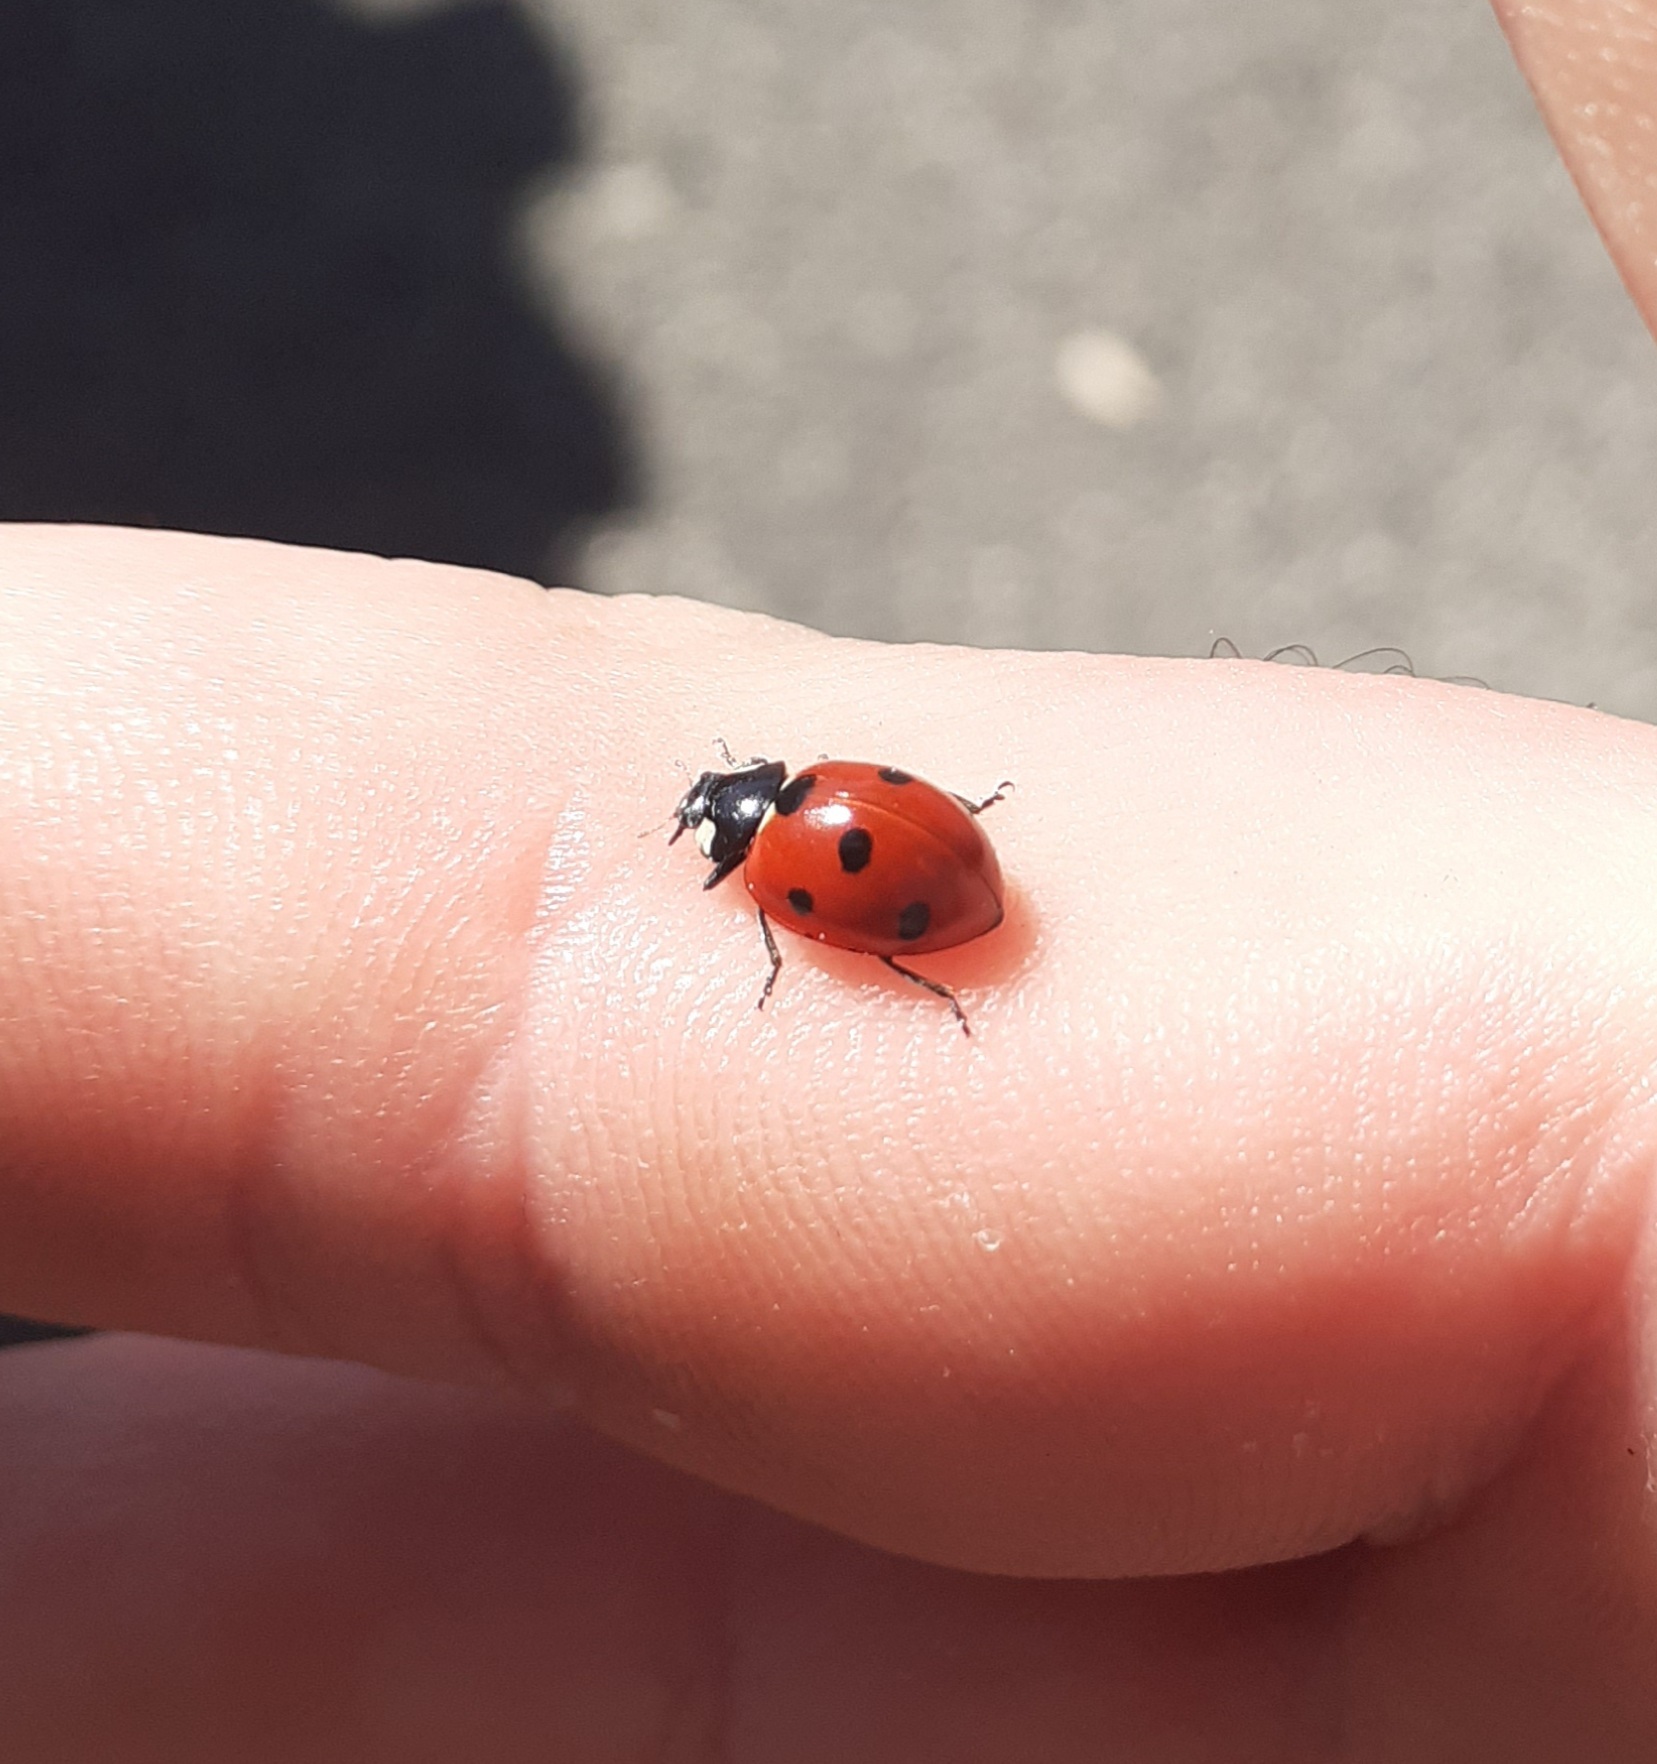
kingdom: Animalia
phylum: Arthropoda
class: Insecta
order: Coleoptera
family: Coccinellidae
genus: Coccinella
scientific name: Coccinella septempunctata
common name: Sevenspotted lady beetle
